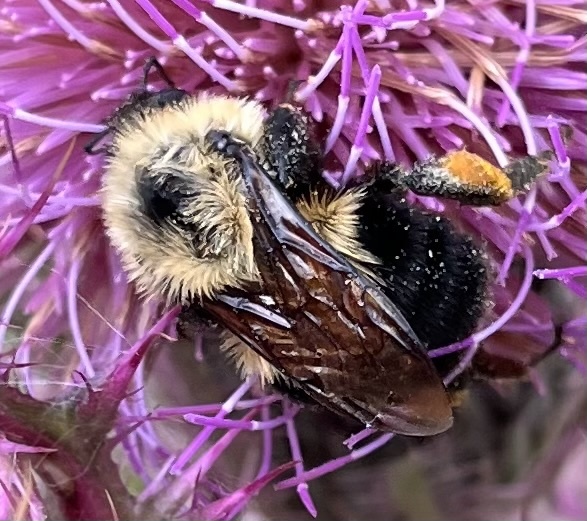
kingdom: Animalia
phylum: Arthropoda
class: Insecta
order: Hymenoptera
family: Apidae
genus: Bombus
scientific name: Bombus bimaculatus
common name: Two-spotted bumble bee
